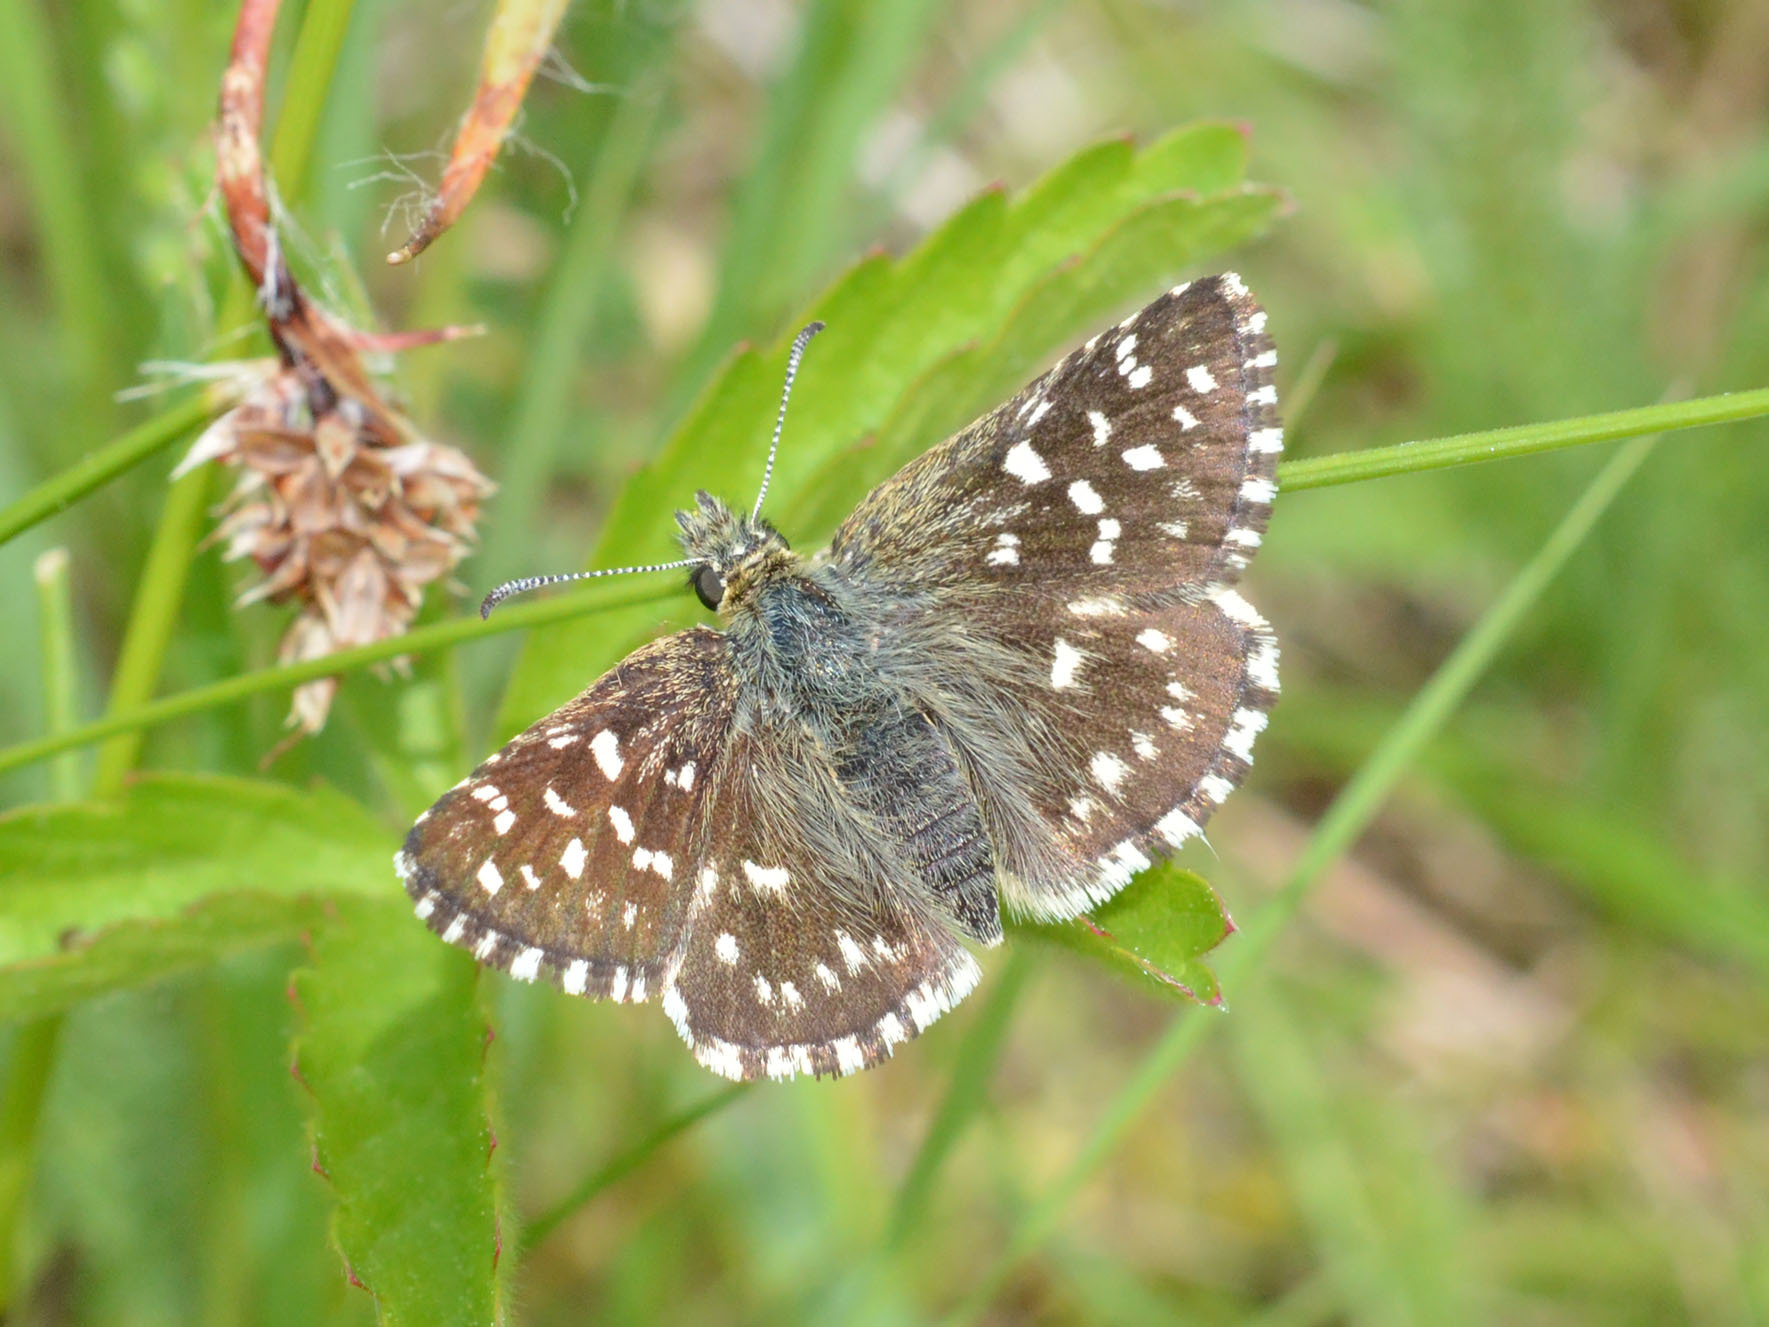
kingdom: Animalia
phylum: Arthropoda
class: Insecta
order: Lepidoptera
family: Hesperiidae
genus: Pyrgus
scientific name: Pyrgus malvae
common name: Grizzled skipper
